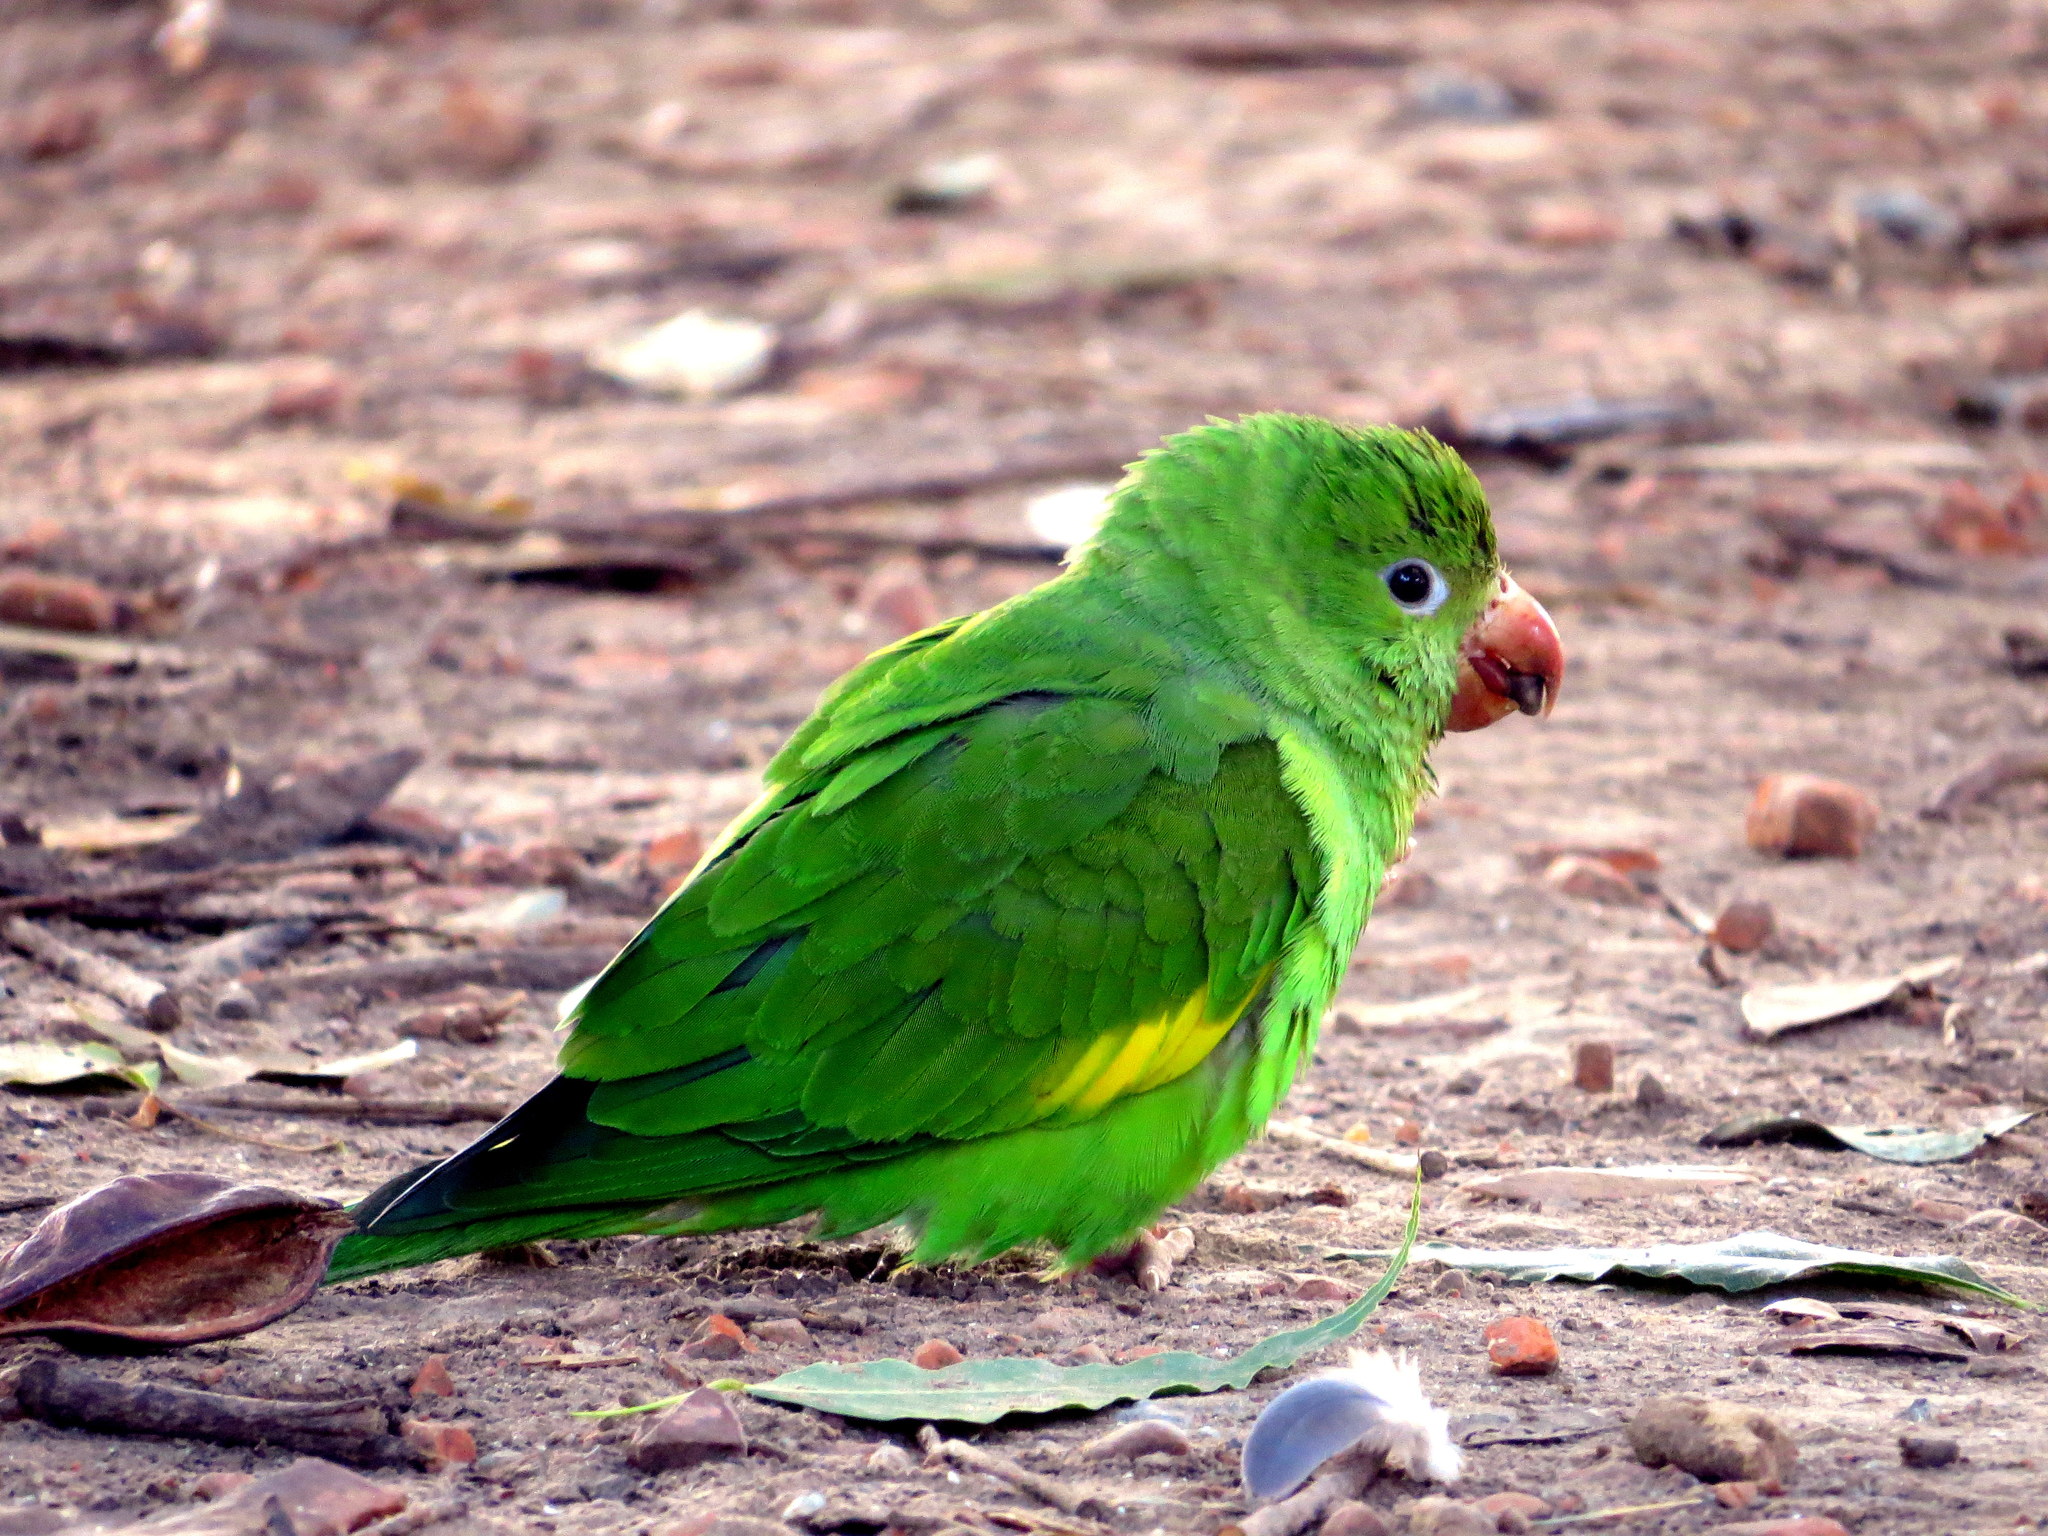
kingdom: Animalia
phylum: Chordata
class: Aves
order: Psittaciformes
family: Psittacidae
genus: Brotogeris
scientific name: Brotogeris chiriri
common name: Yellow-chevroned parakeet
